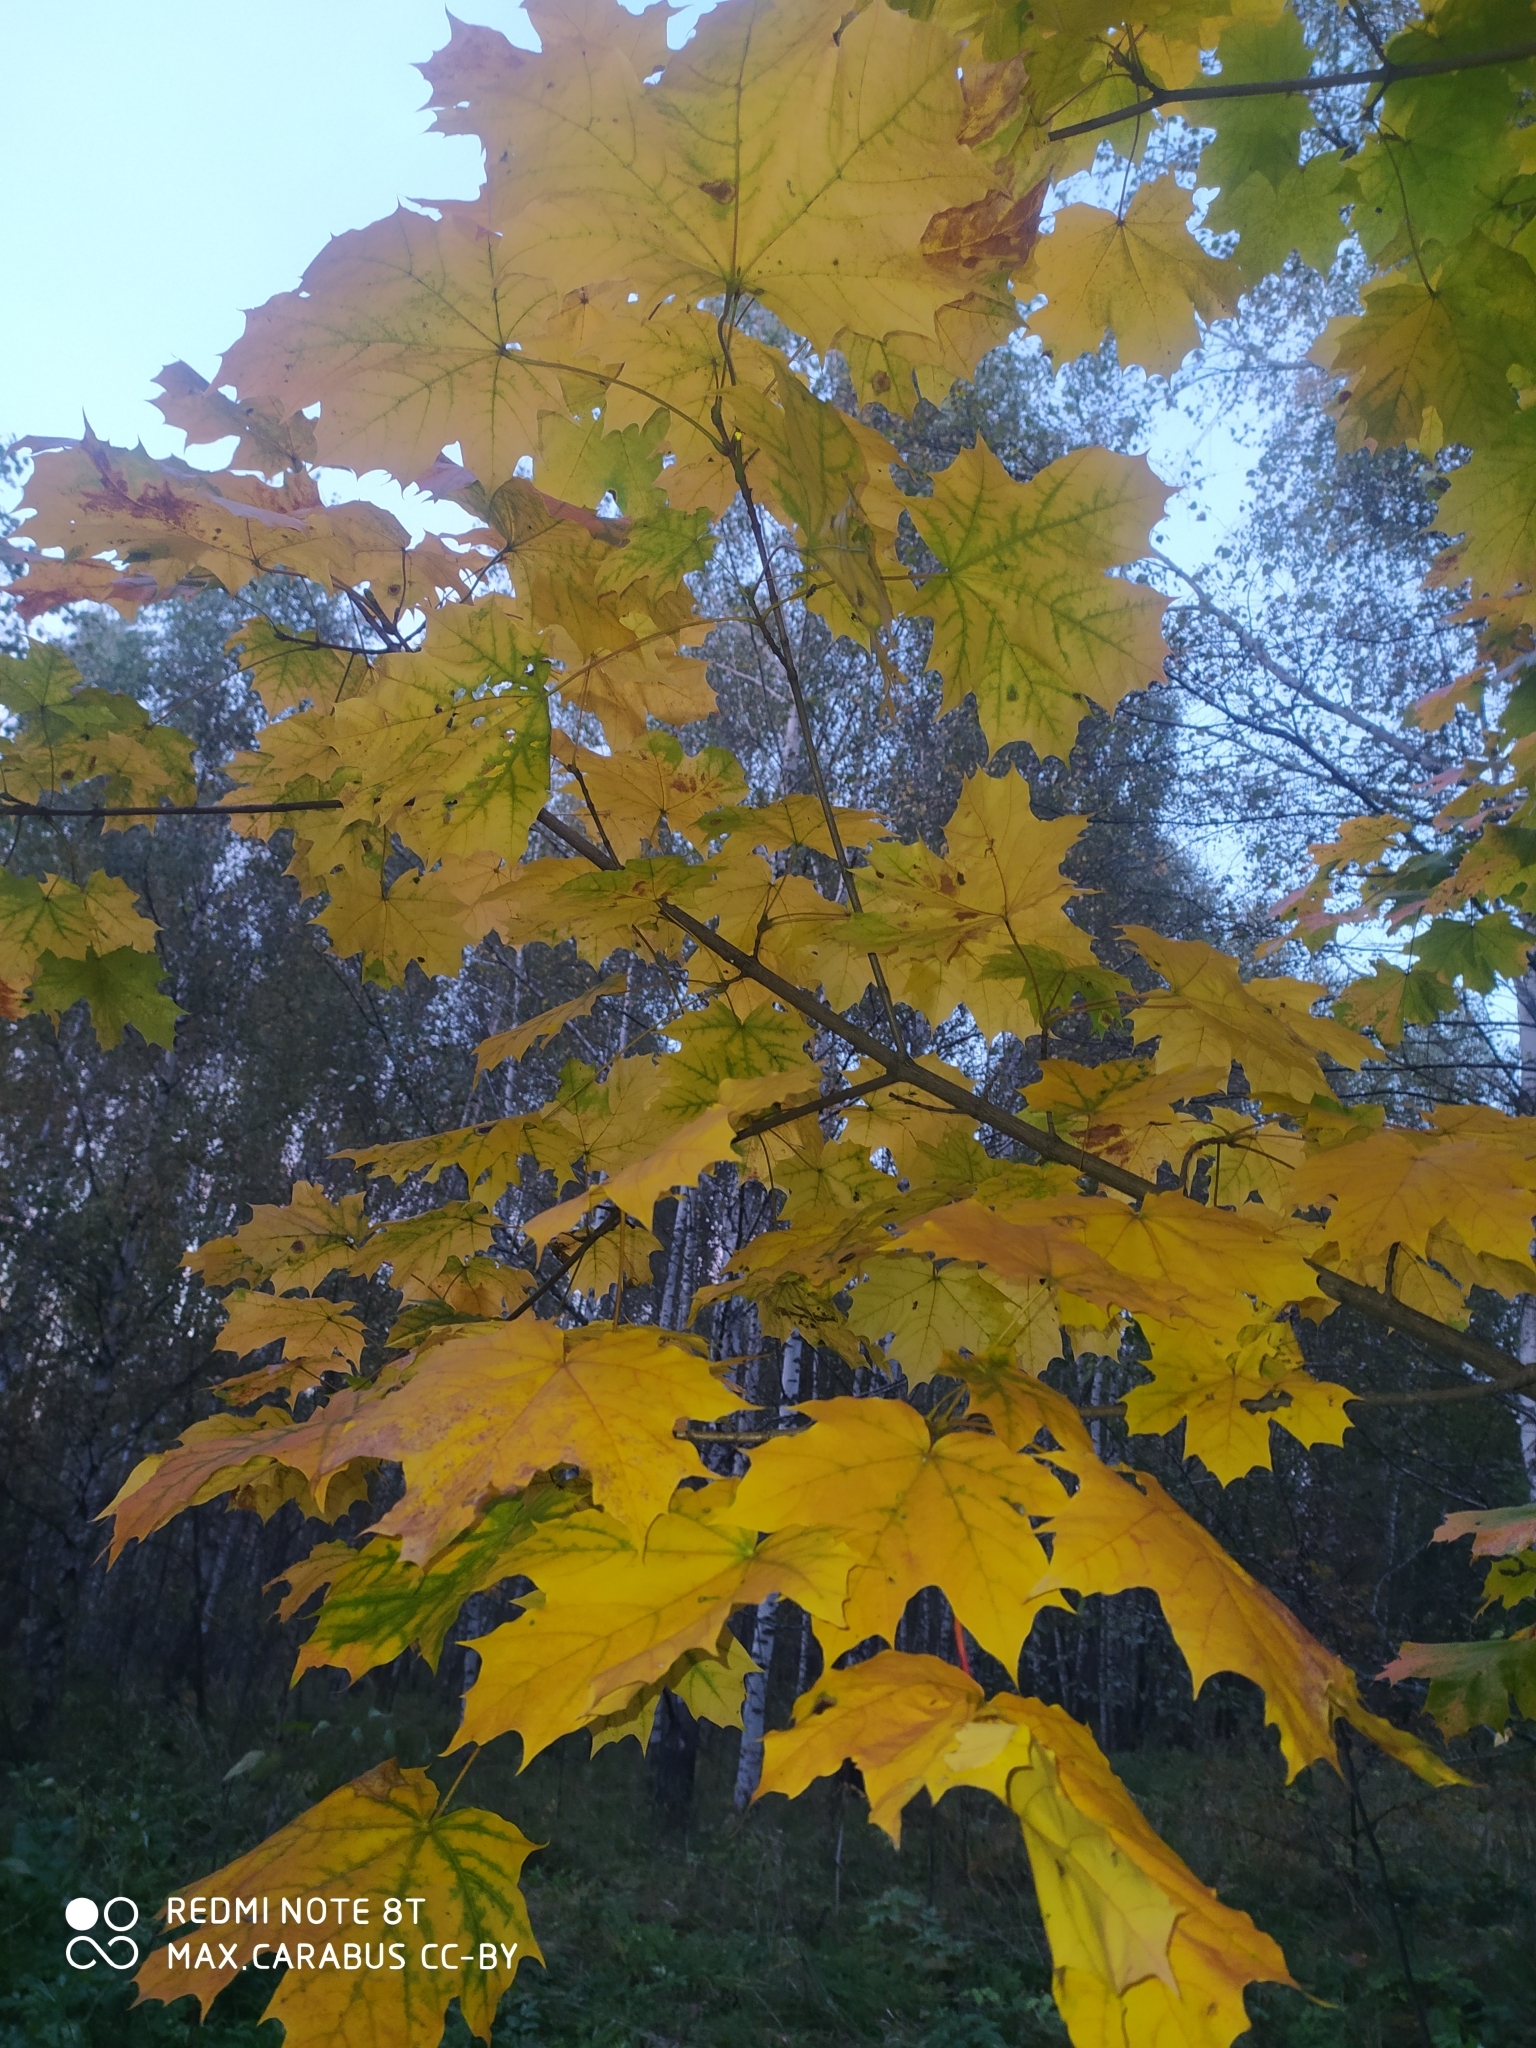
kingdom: Plantae
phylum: Tracheophyta
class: Magnoliopsida
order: Sapindales
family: Sapindaceae
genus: Acer
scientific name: Acer platanoides
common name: Norway maple
